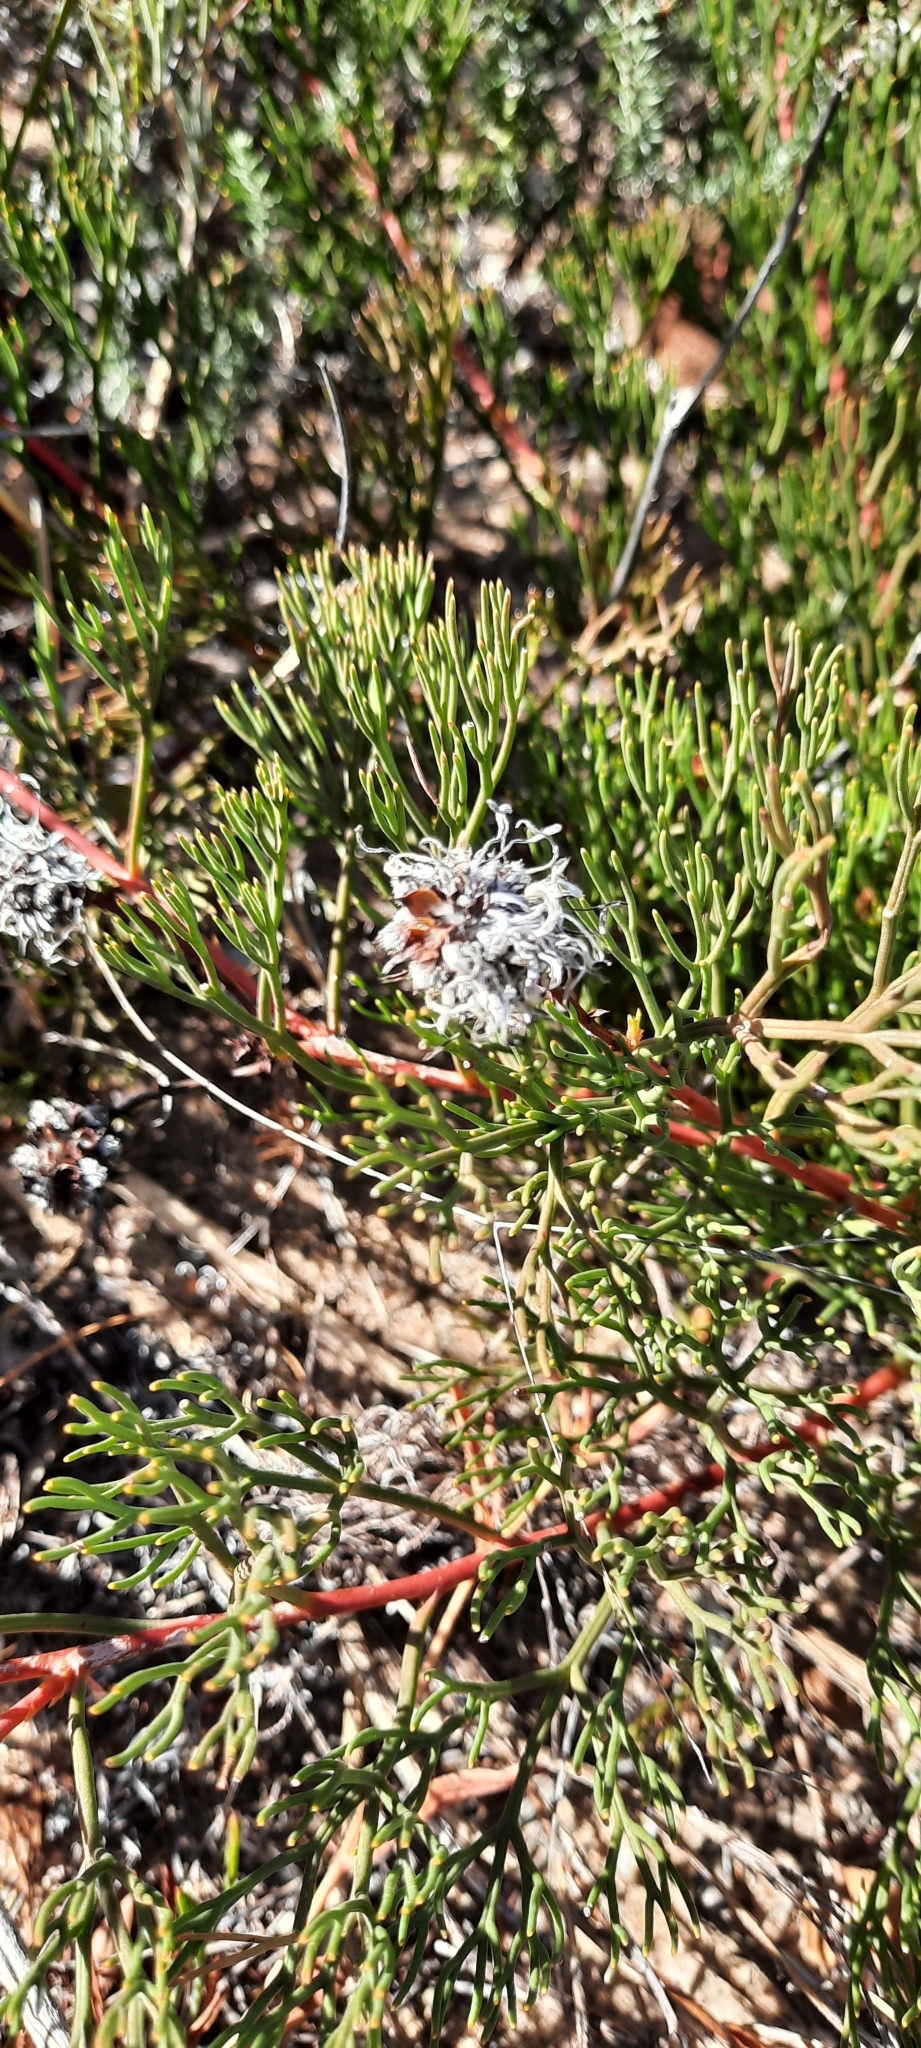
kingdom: Plantae
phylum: Tracheophyta
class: Magnoliopsida
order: Proteales
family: Proteaceae
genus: Serruria
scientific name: Serruria cygnea
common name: Swan spiderhead
